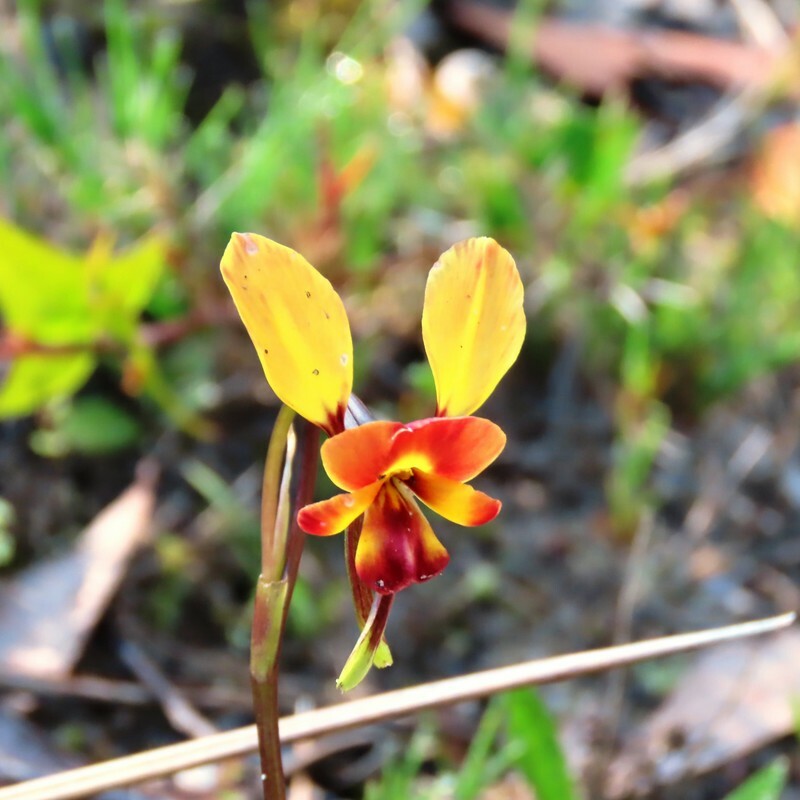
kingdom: Plantae
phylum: Tracheophyta
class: Liliopsida
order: Asparagales
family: Orchidaceae
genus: Diuris
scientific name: Diuris orientis
